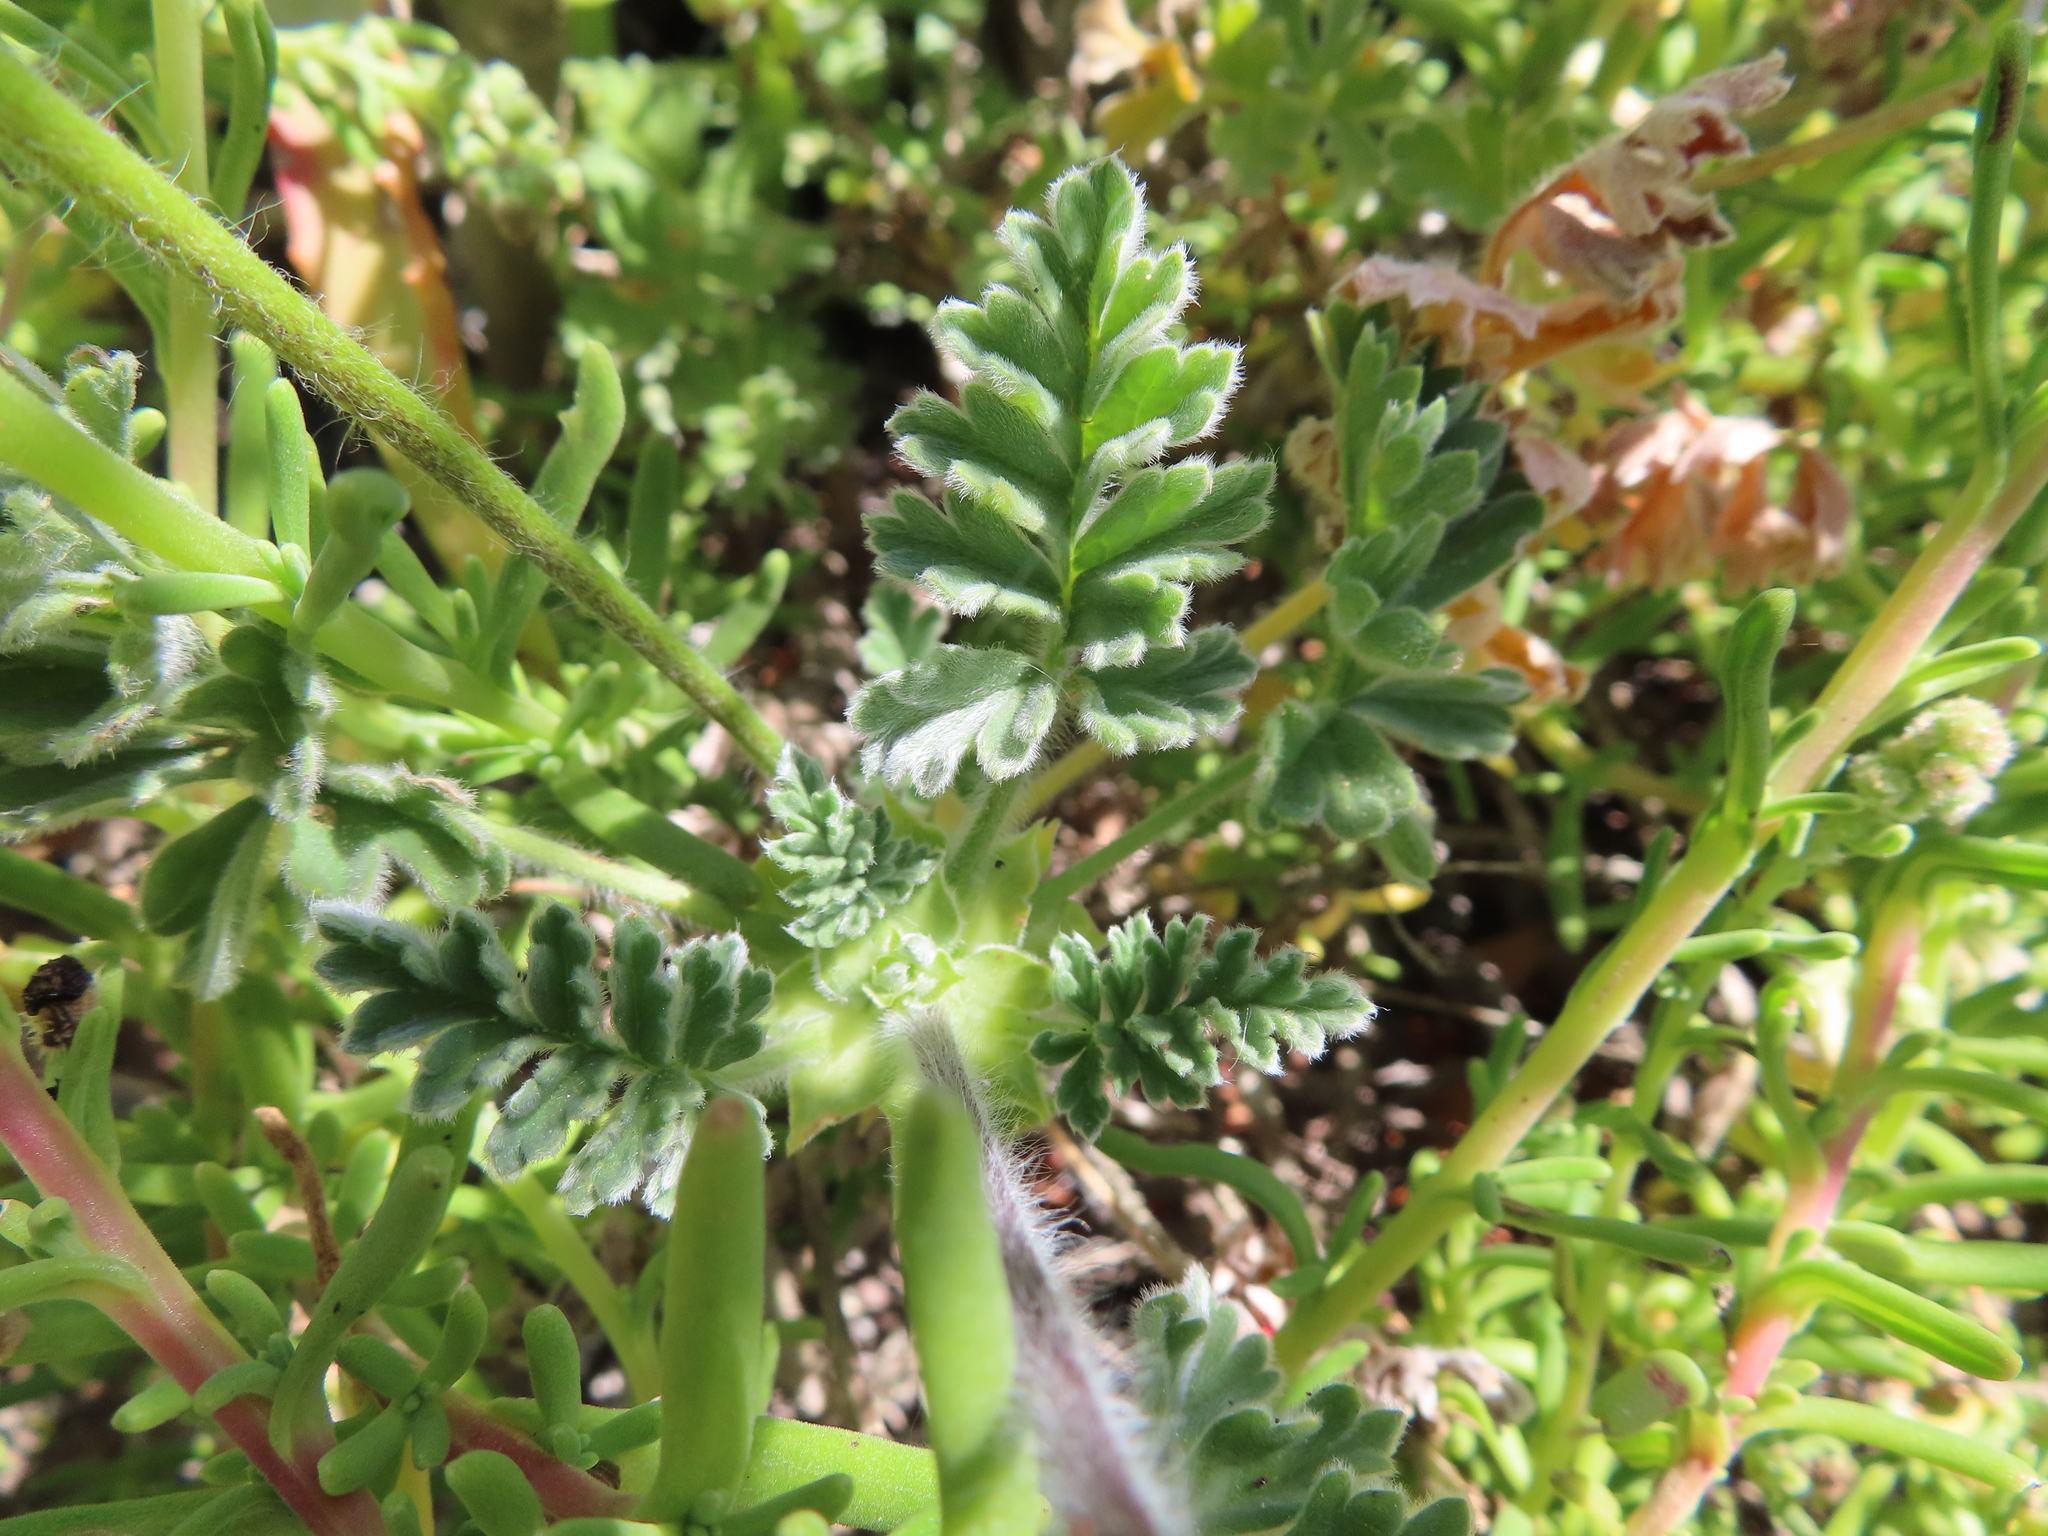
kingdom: Plantae
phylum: Tracheophyta
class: Magnoliopsida
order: Geraniales
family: Geraniaceae
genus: Pelargonium
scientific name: Pelargonium fulgidum
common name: Celandine-leaf pelargonium
